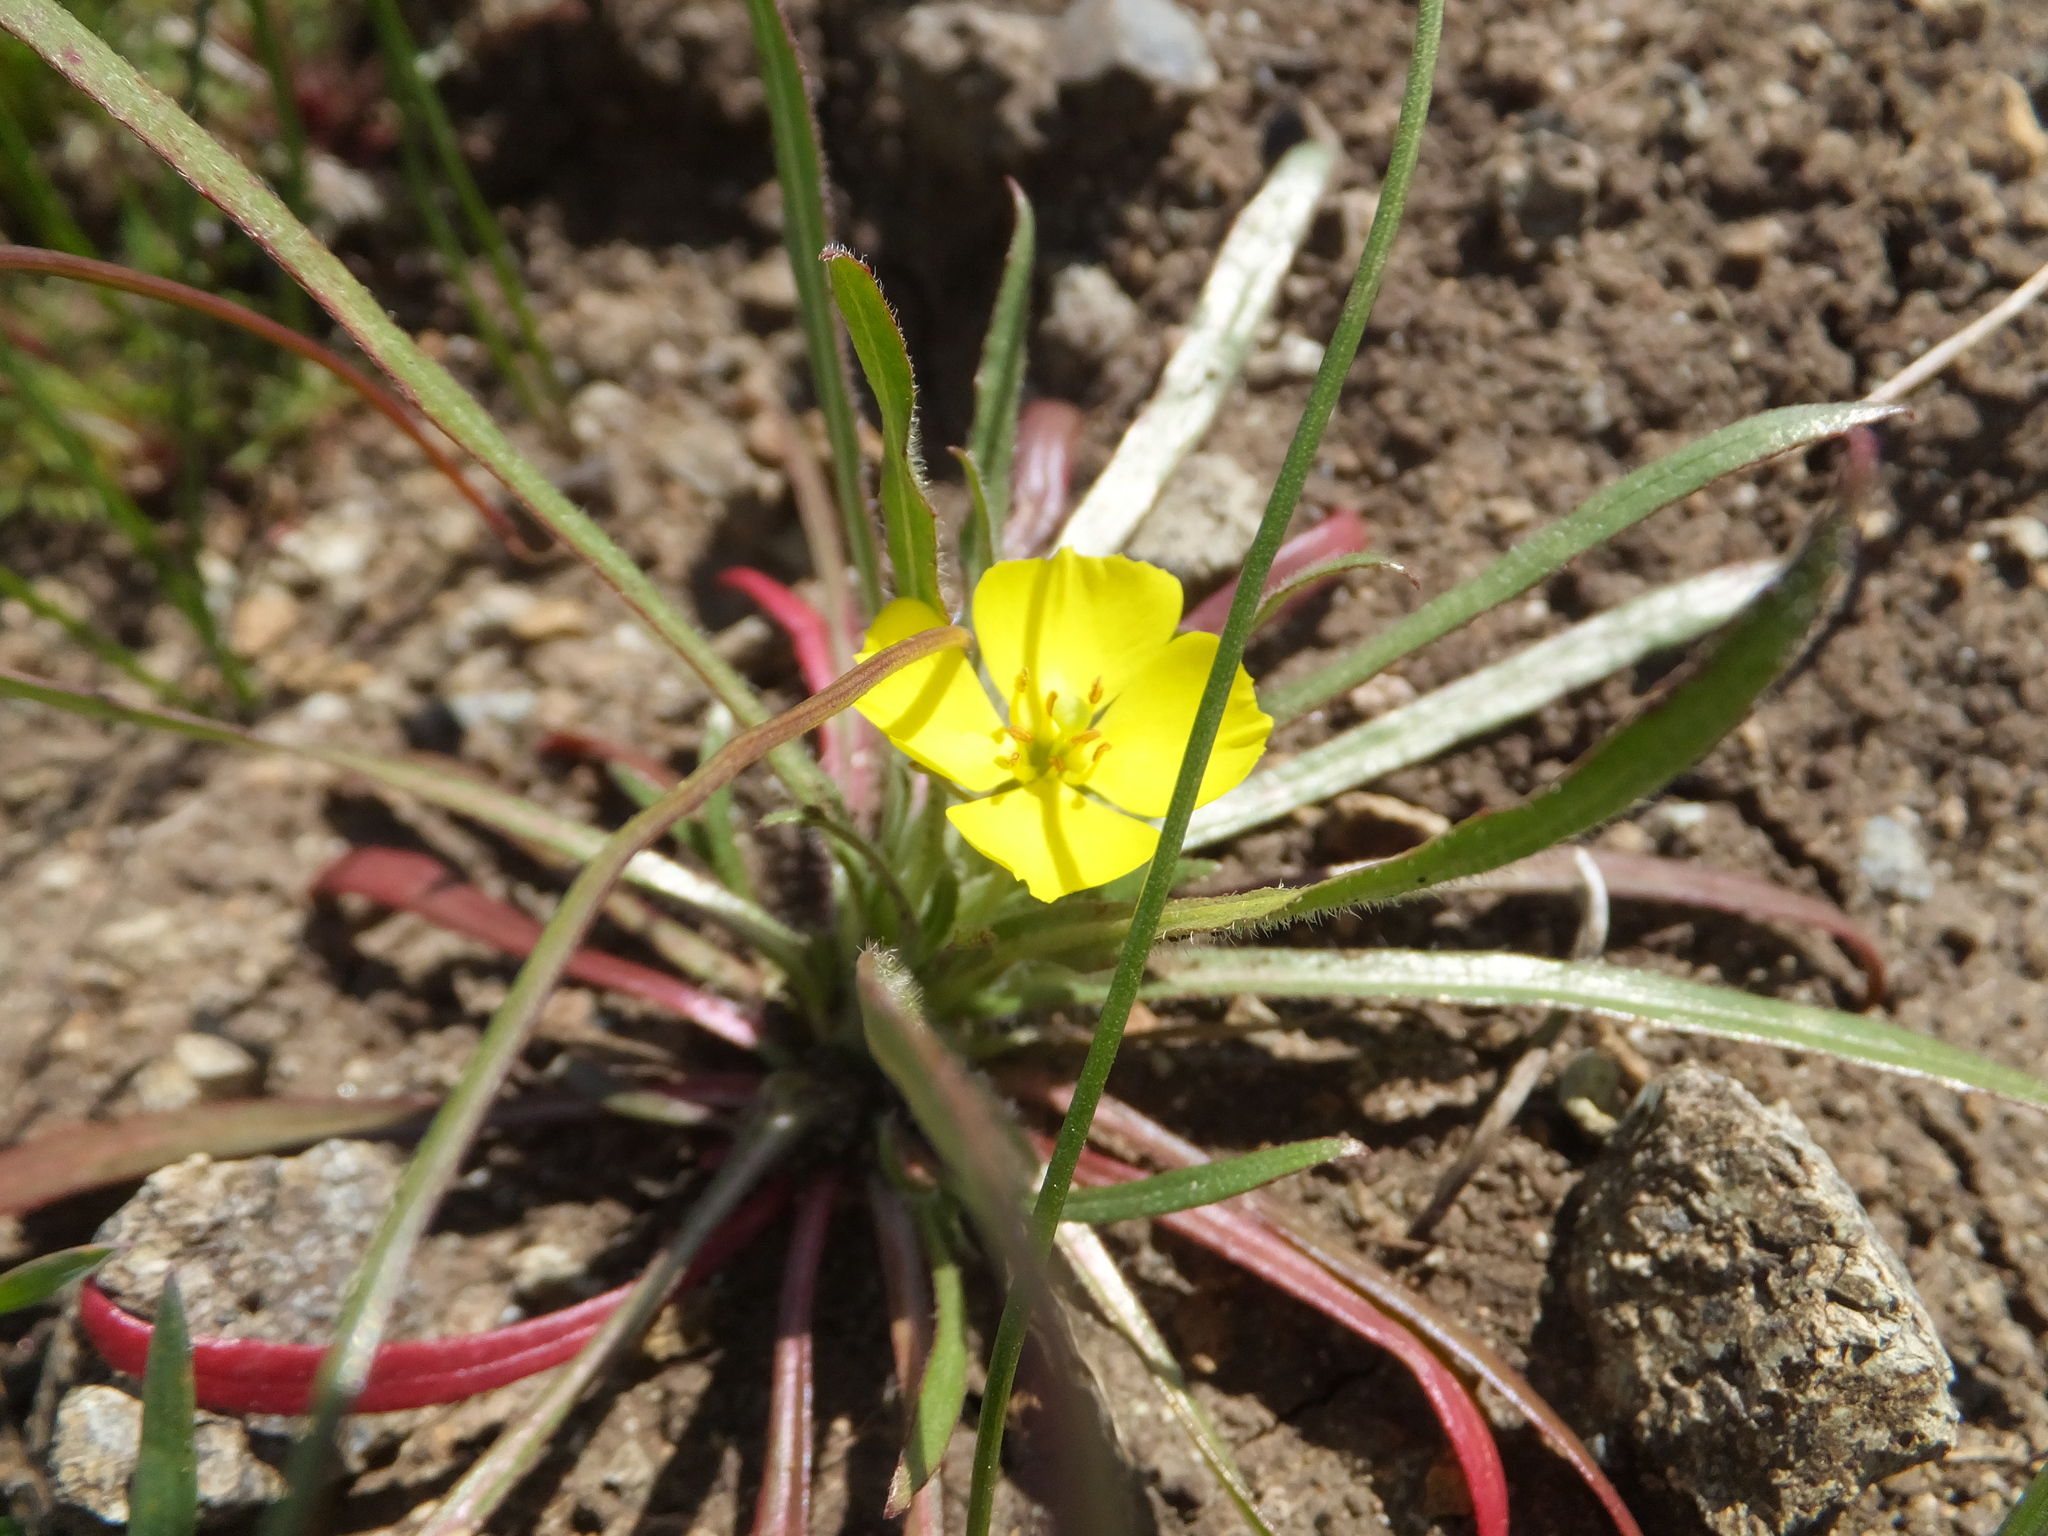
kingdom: Plantae
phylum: Tracheophyta
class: Magnoliopsida
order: Myrtales
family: Onagraceae
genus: Tetrapteron
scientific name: Tetrapteron graciliflorum
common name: Hill suncup
